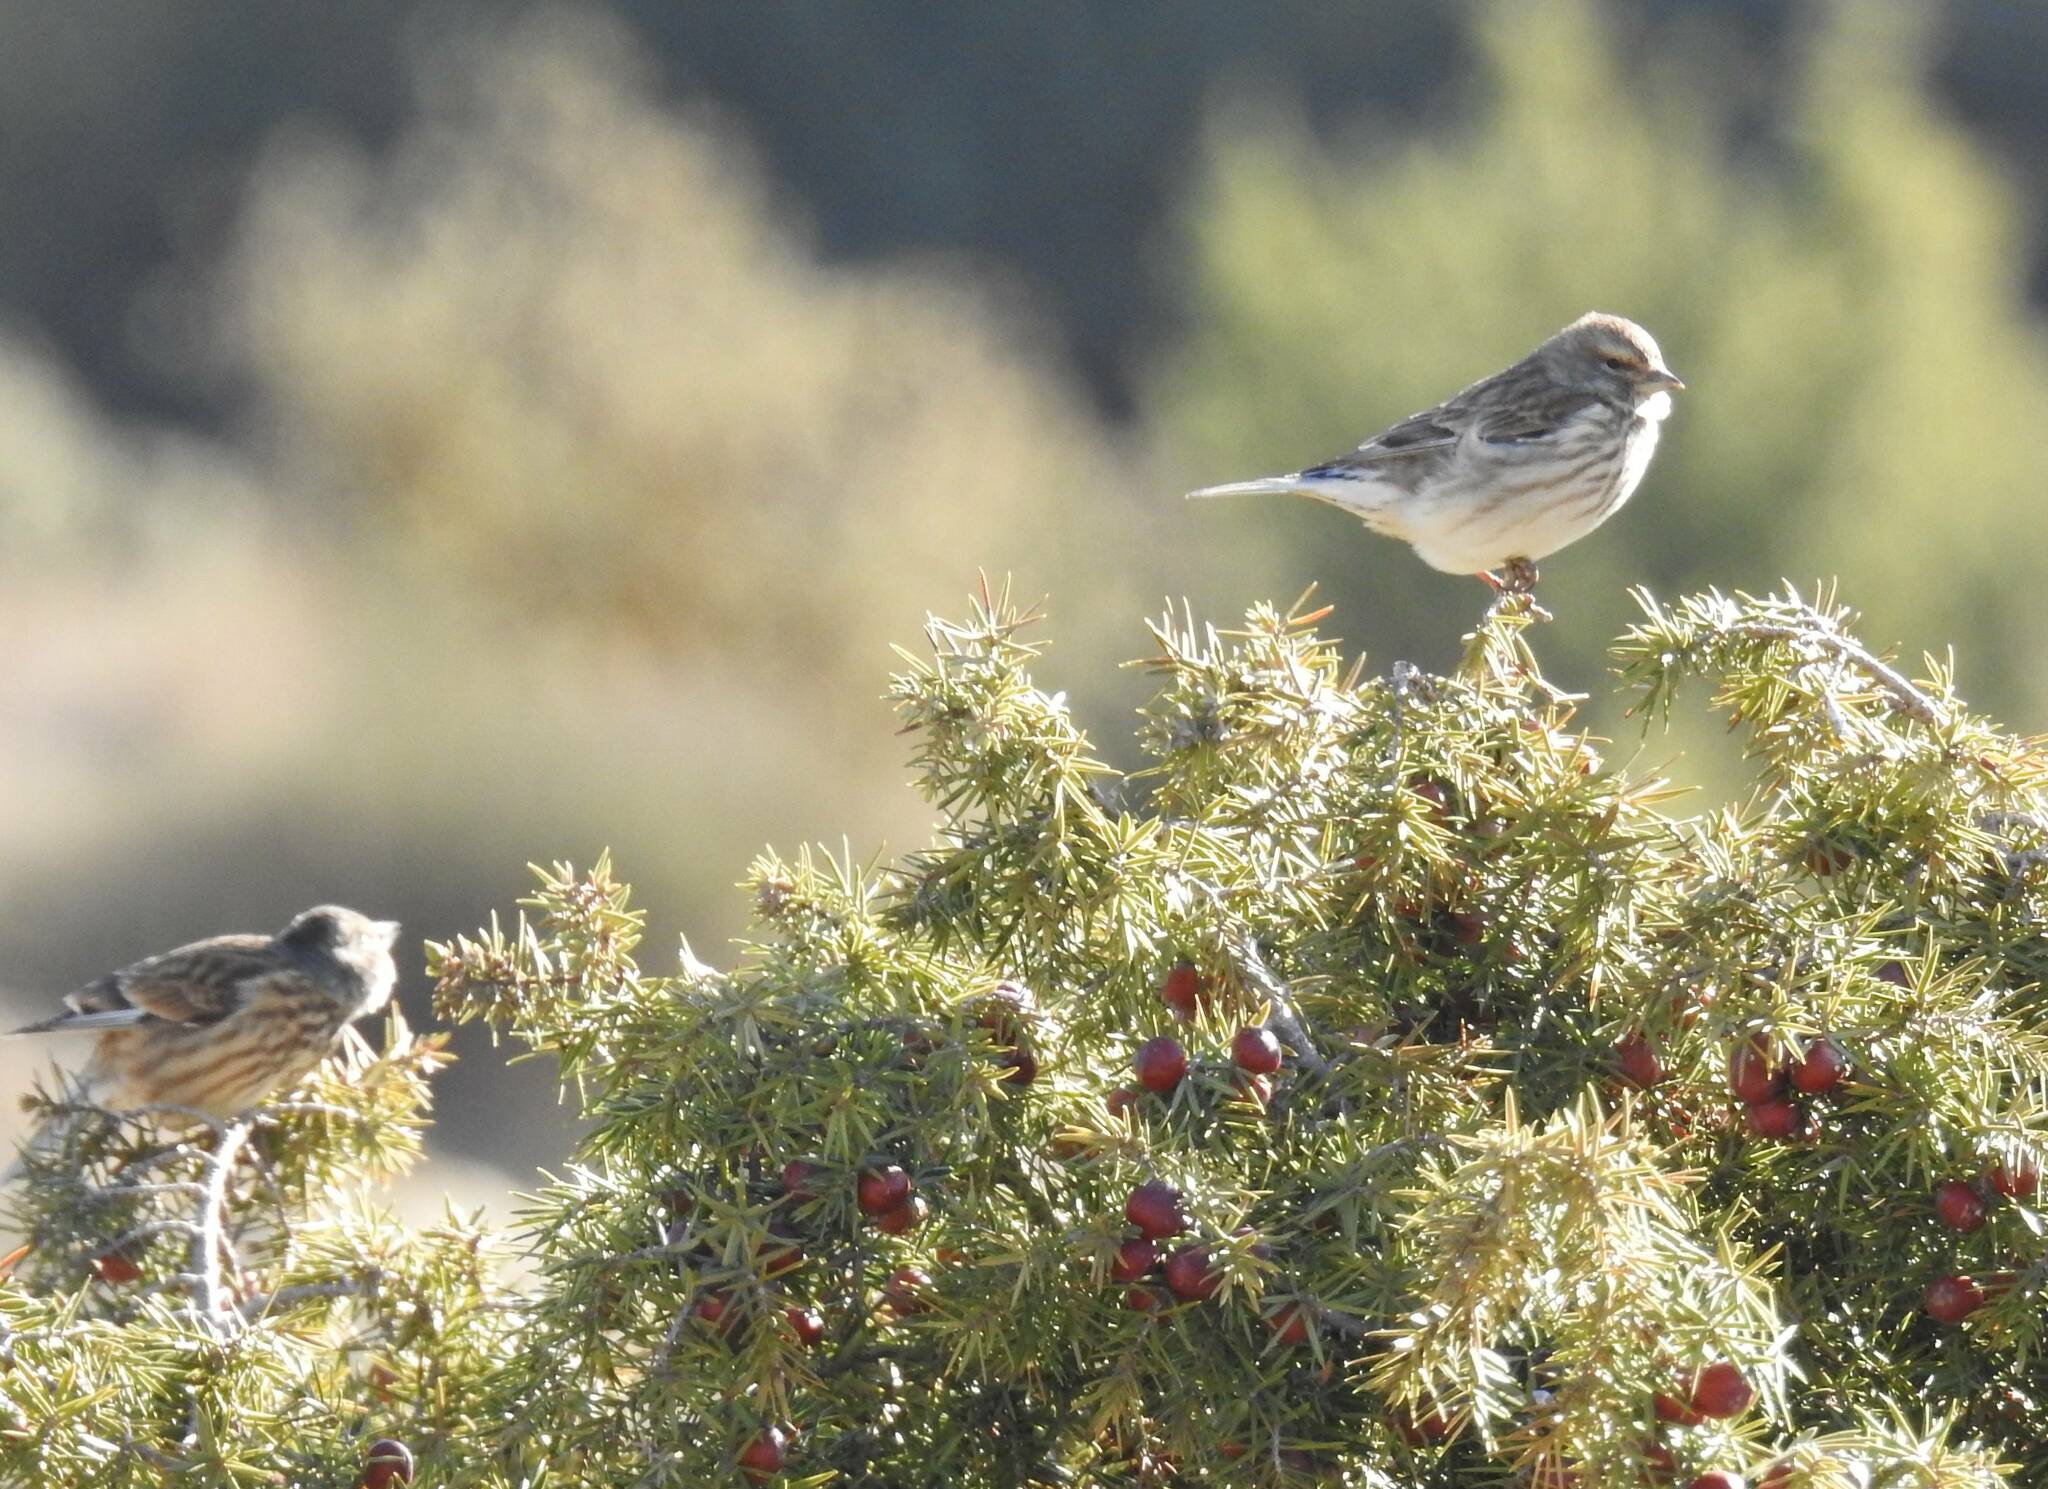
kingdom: Animalia
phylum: Chordata
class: Aves
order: Passeriformes
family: Fringillidae
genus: Linaria
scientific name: Linaria cannabina
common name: Common linnet
